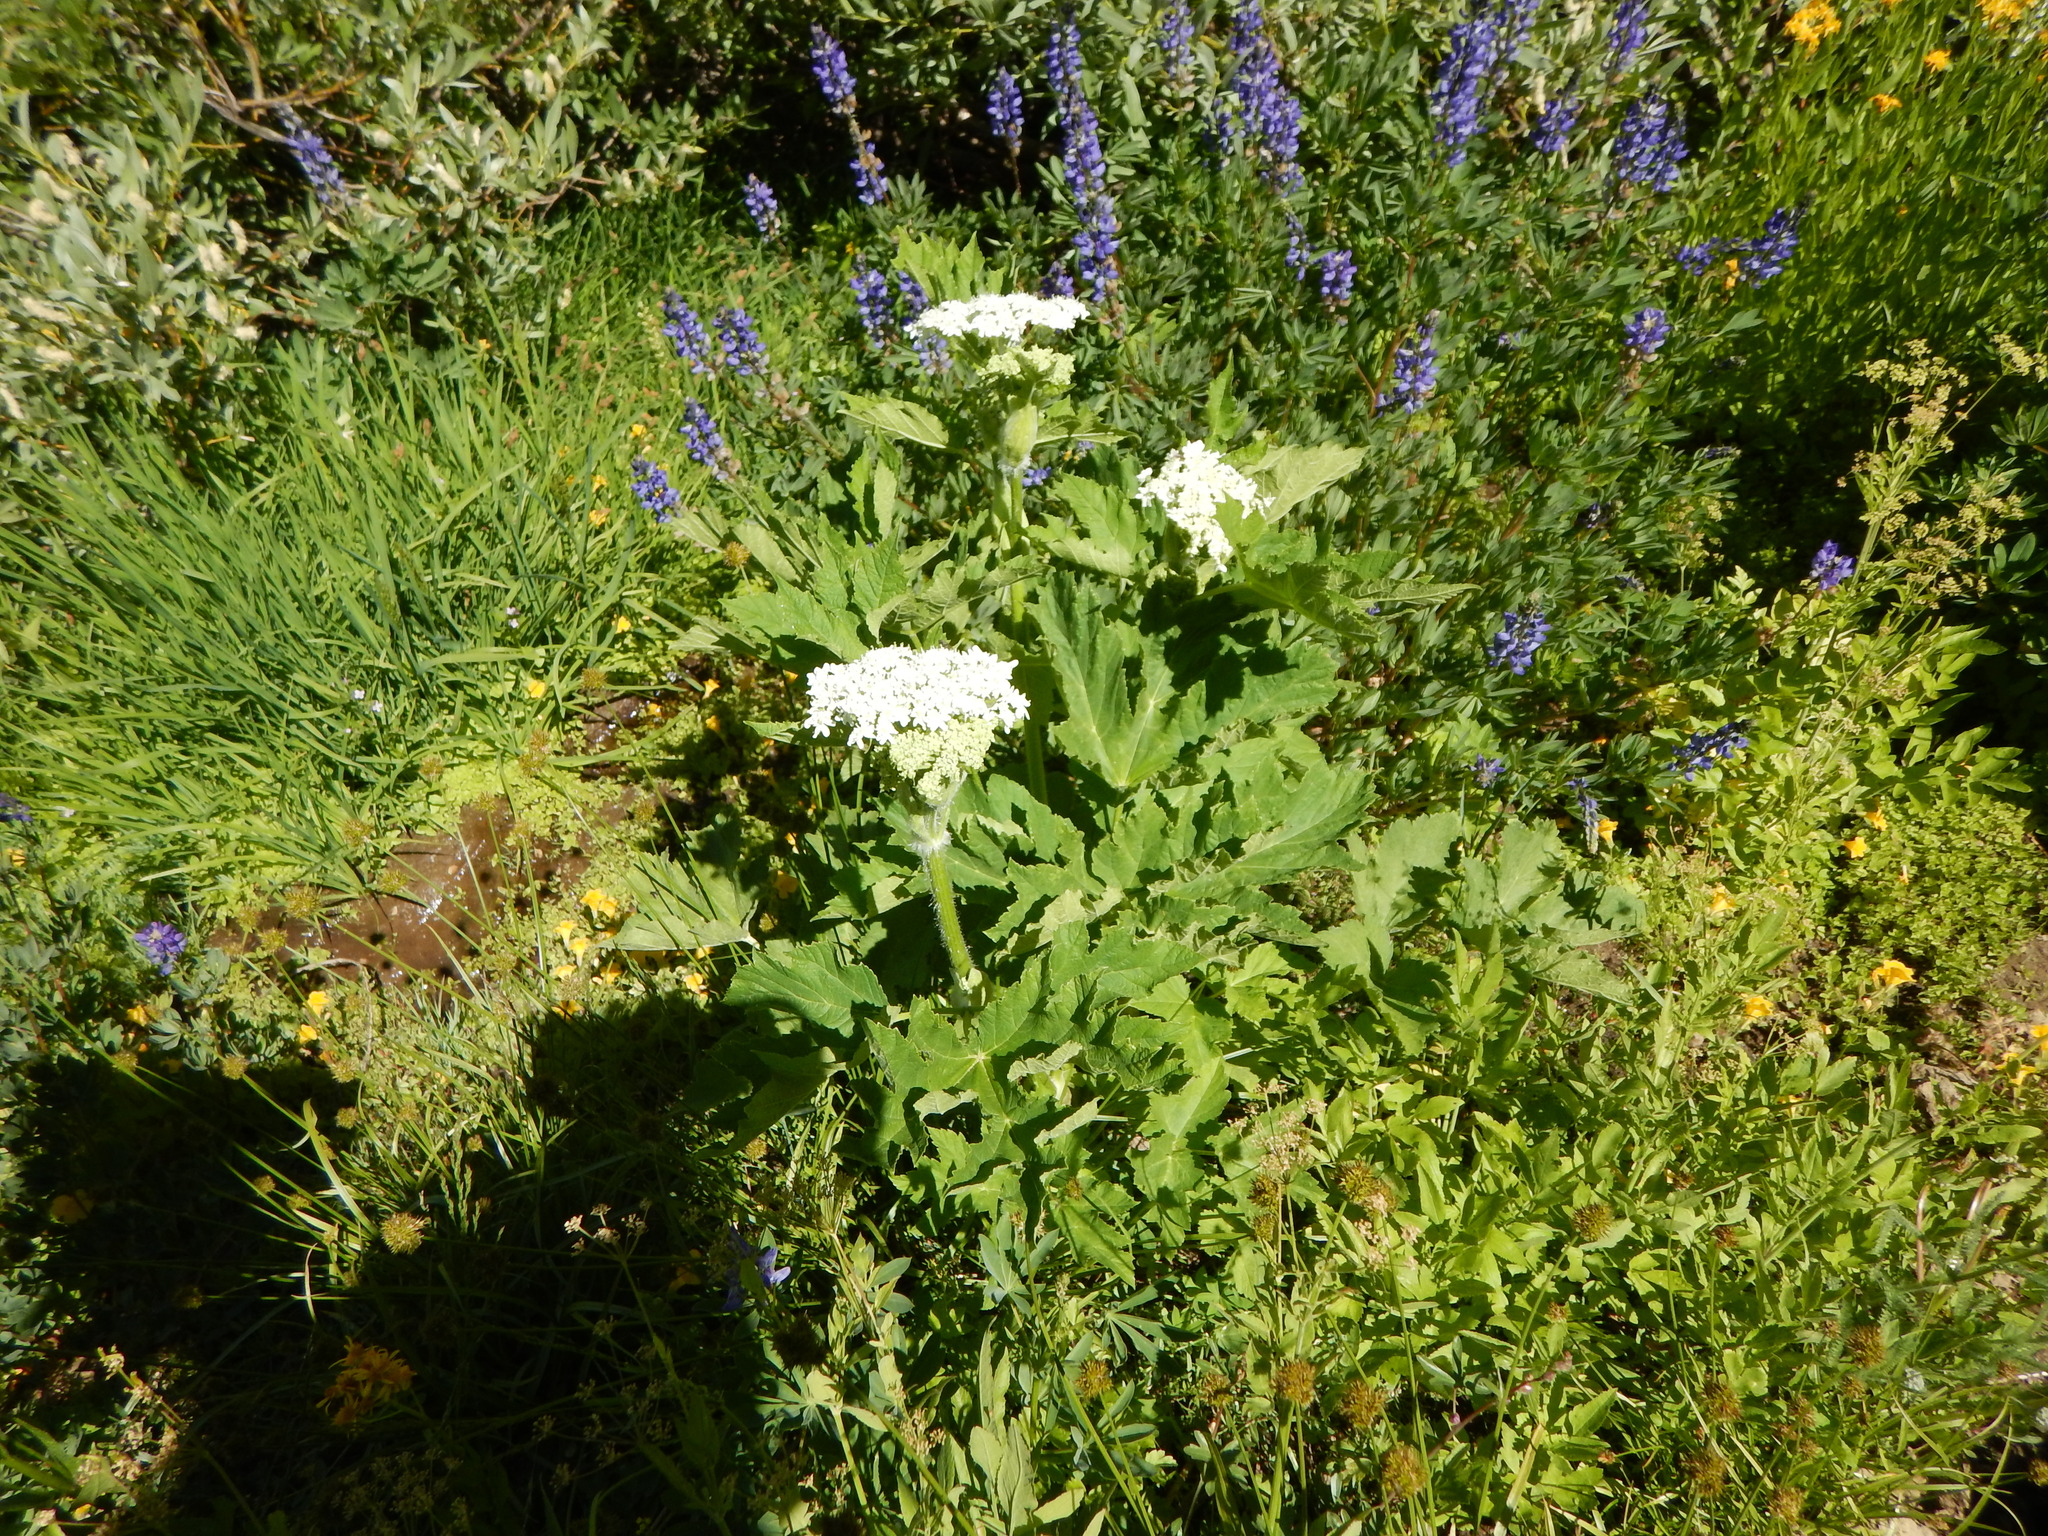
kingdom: Plantae
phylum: Tracheophyta
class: Magnoliopsida
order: Apiales
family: Apiaceae
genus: Heracleum
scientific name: Heracleum maximum
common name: American cow parsnip
